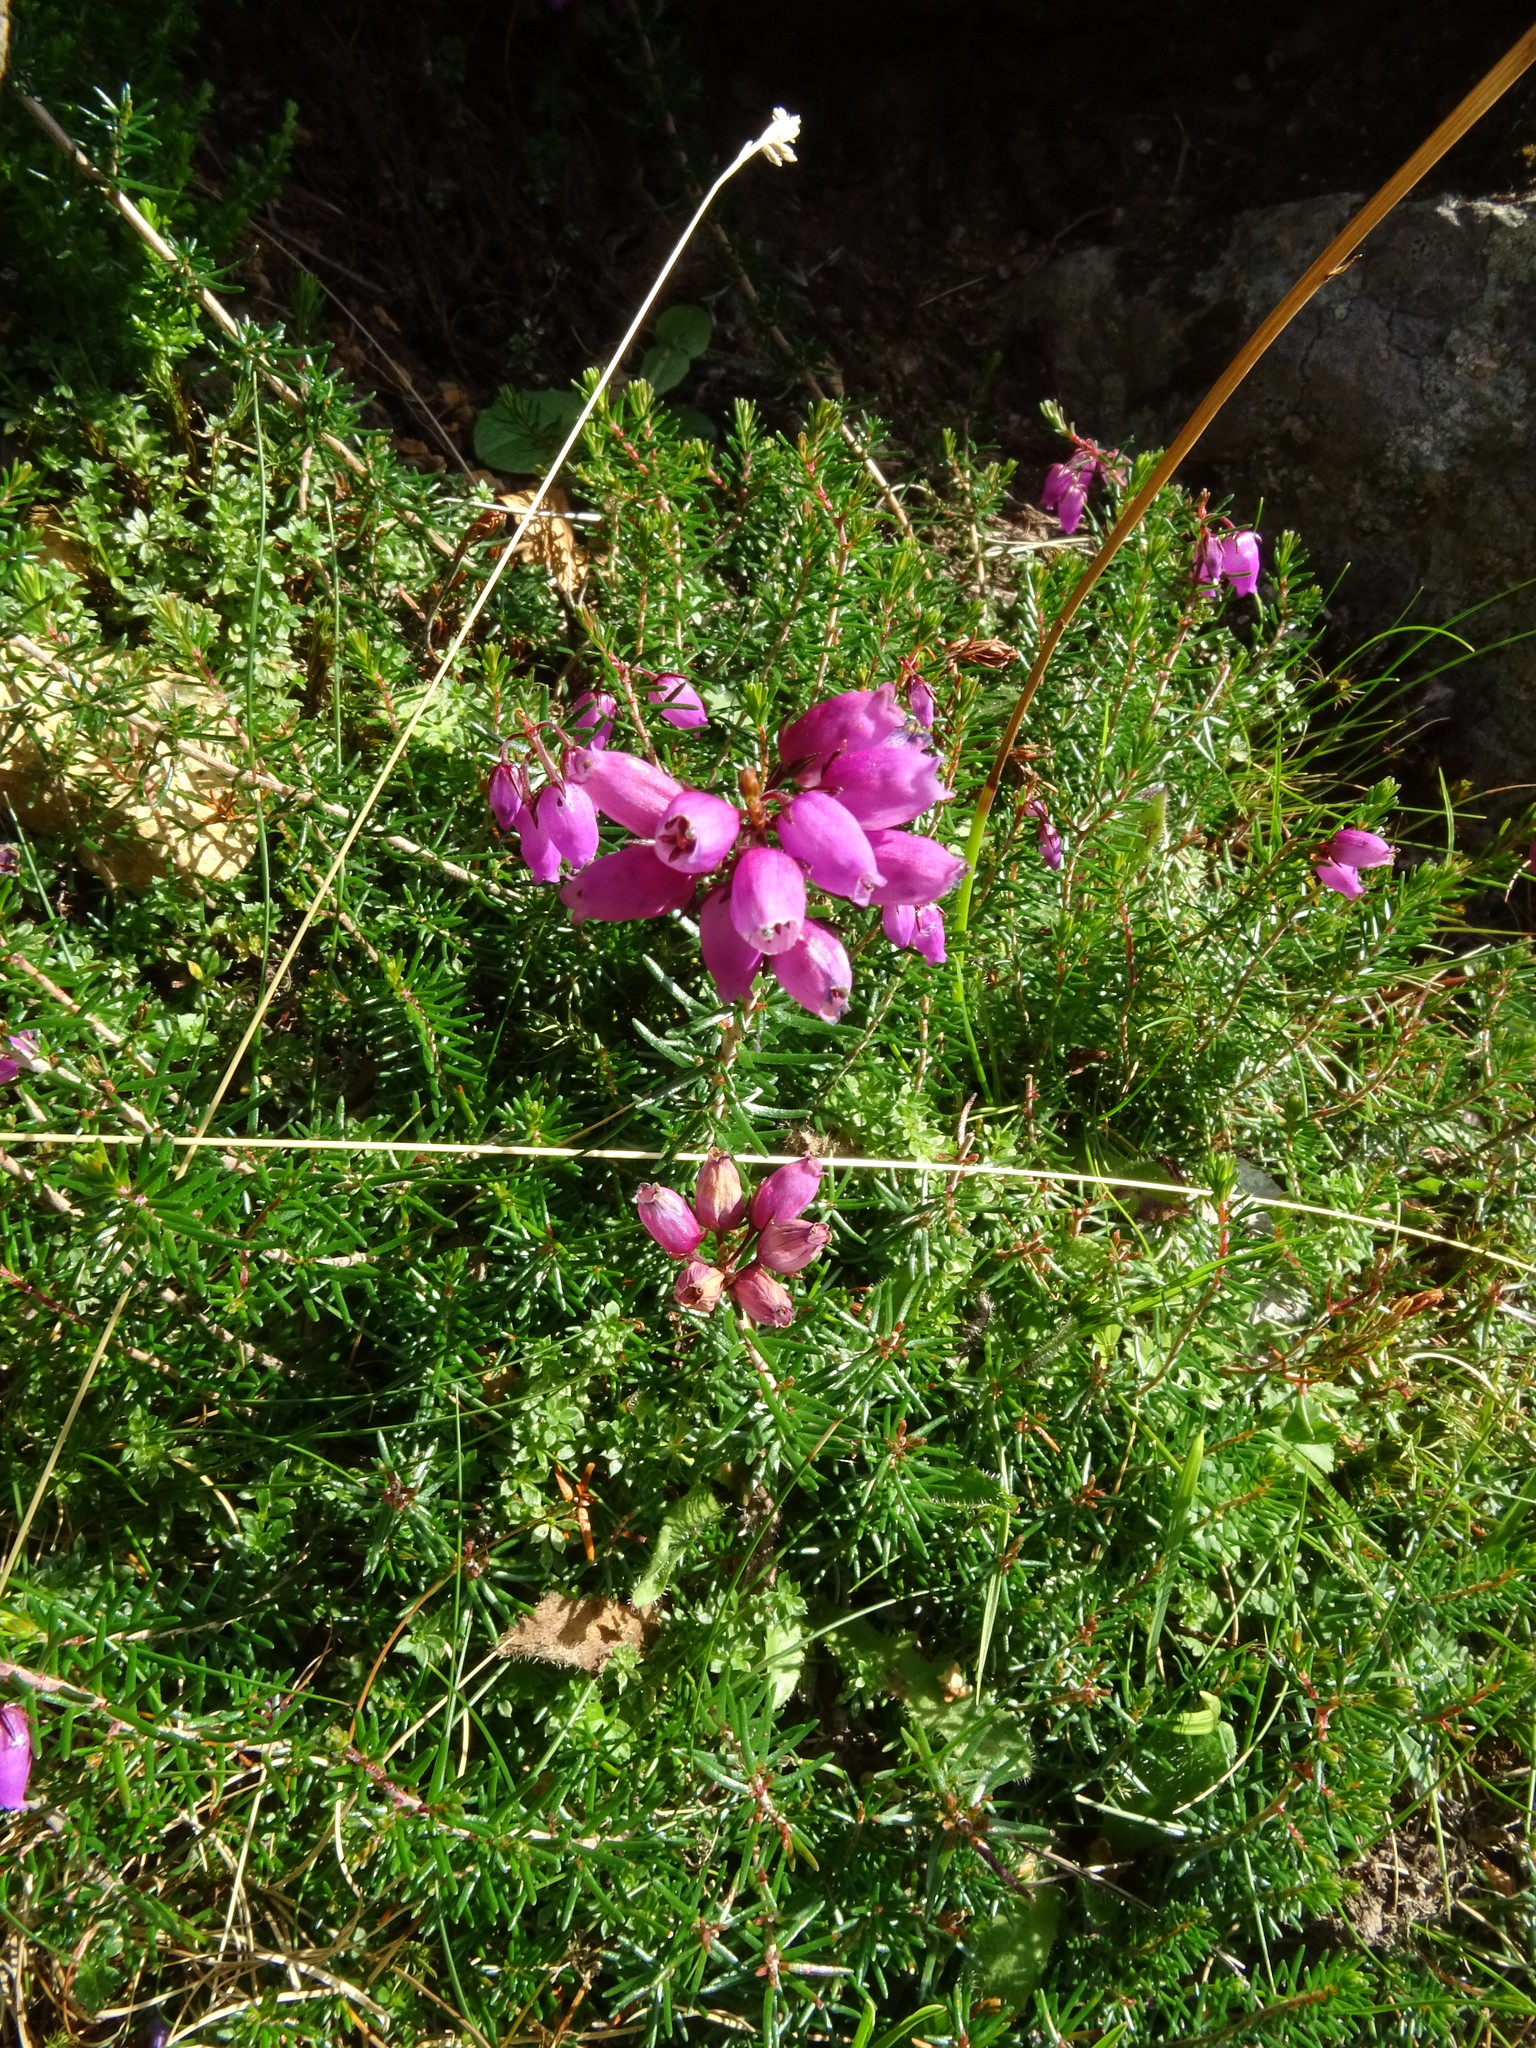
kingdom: Plantae
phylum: Tracheophyta
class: Magnoliopsida
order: Ericales
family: Ericaceae
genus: Erica
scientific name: Erica cinerea
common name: Bell heather
